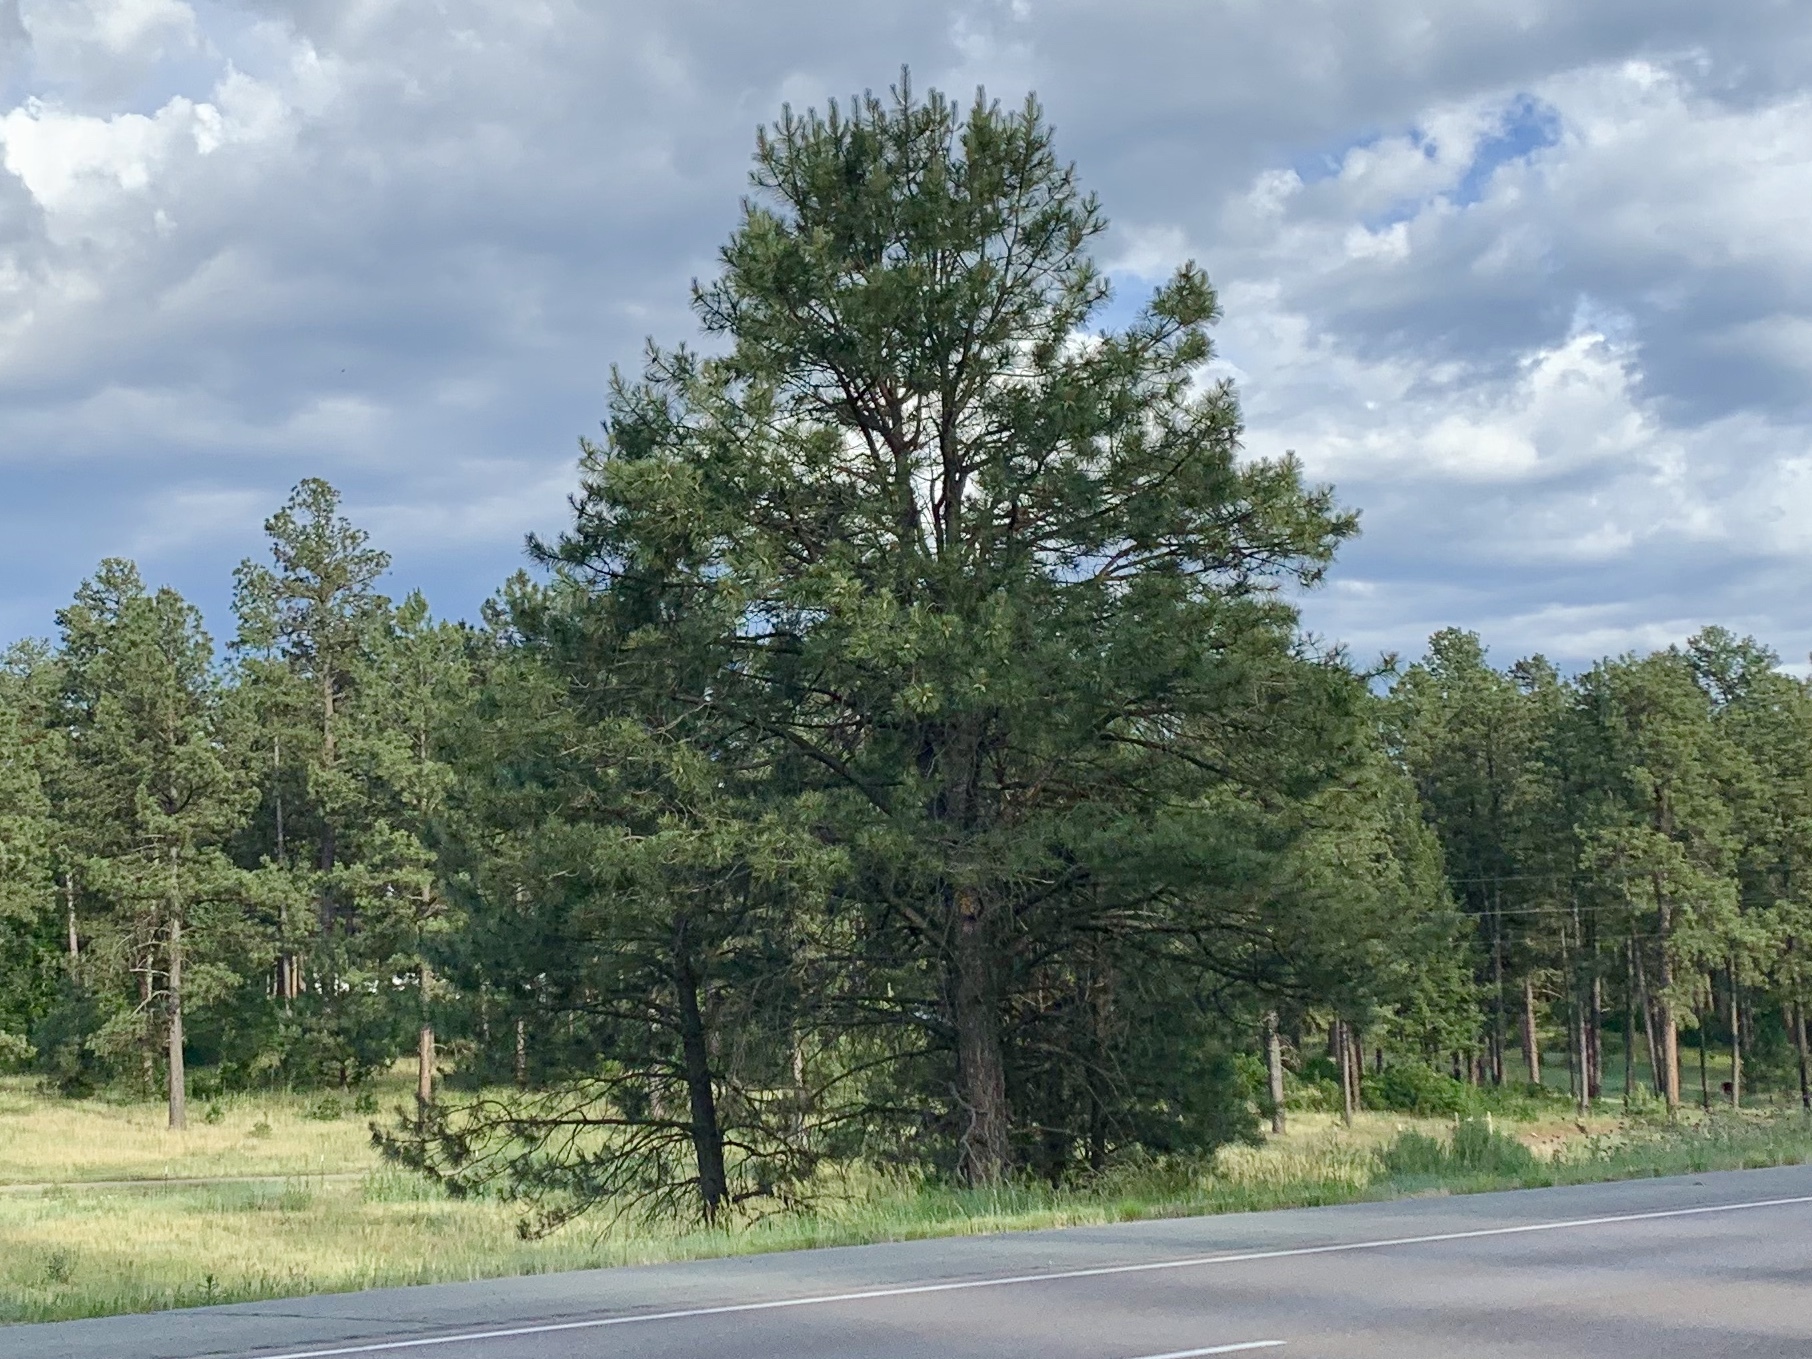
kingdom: Plantae
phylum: Tracheophyta
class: Pinopsida
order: Pinales
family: Pinaceae
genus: Pinus
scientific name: Pinus ponderosa
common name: Western yellow-pine
